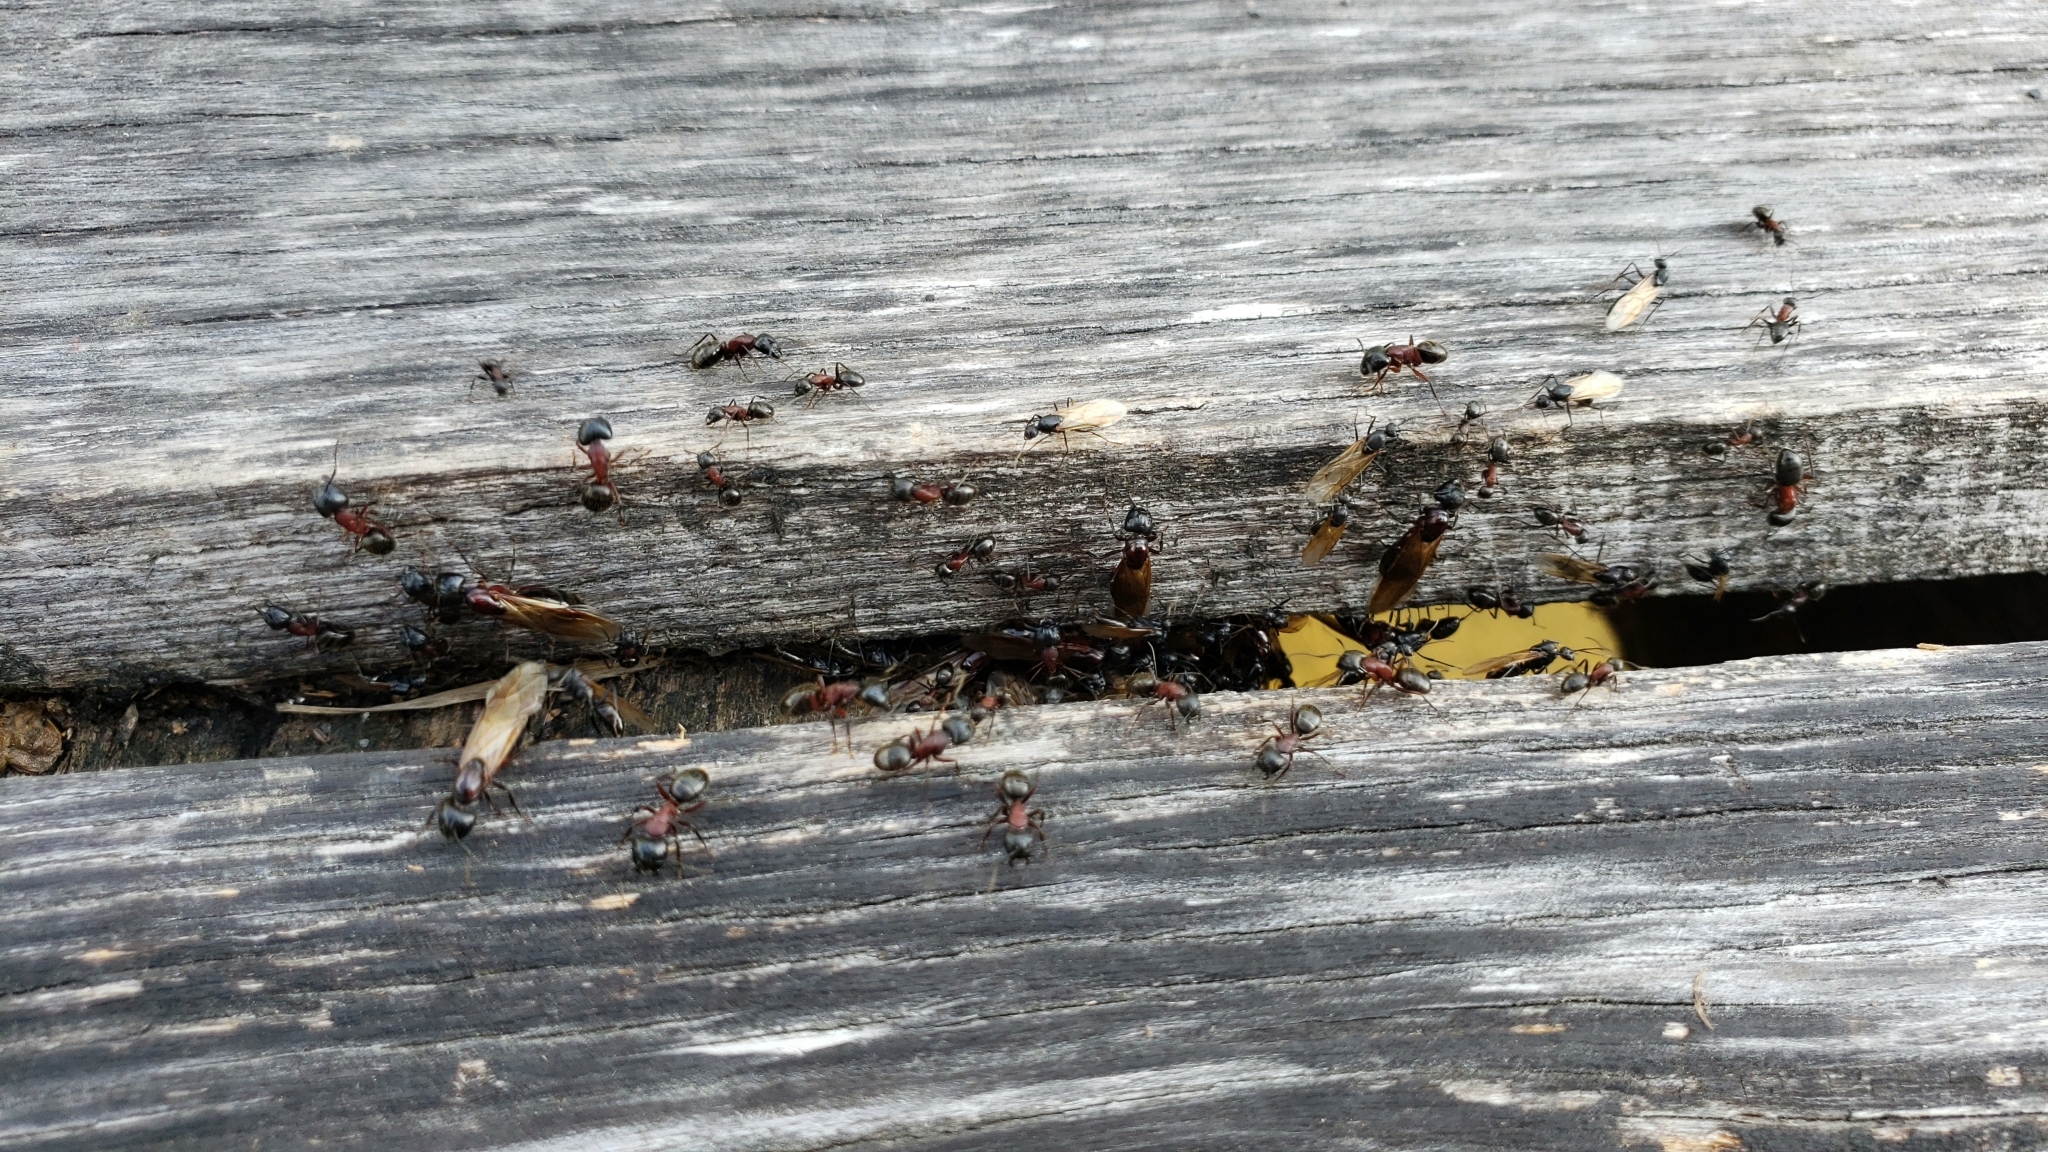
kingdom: Animalia
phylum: Arthropoda
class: Insecta
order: Hymenoptera
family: Formicidae
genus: Camponotus
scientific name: Camponotus novaeboracensis
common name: New york carpenter ant
